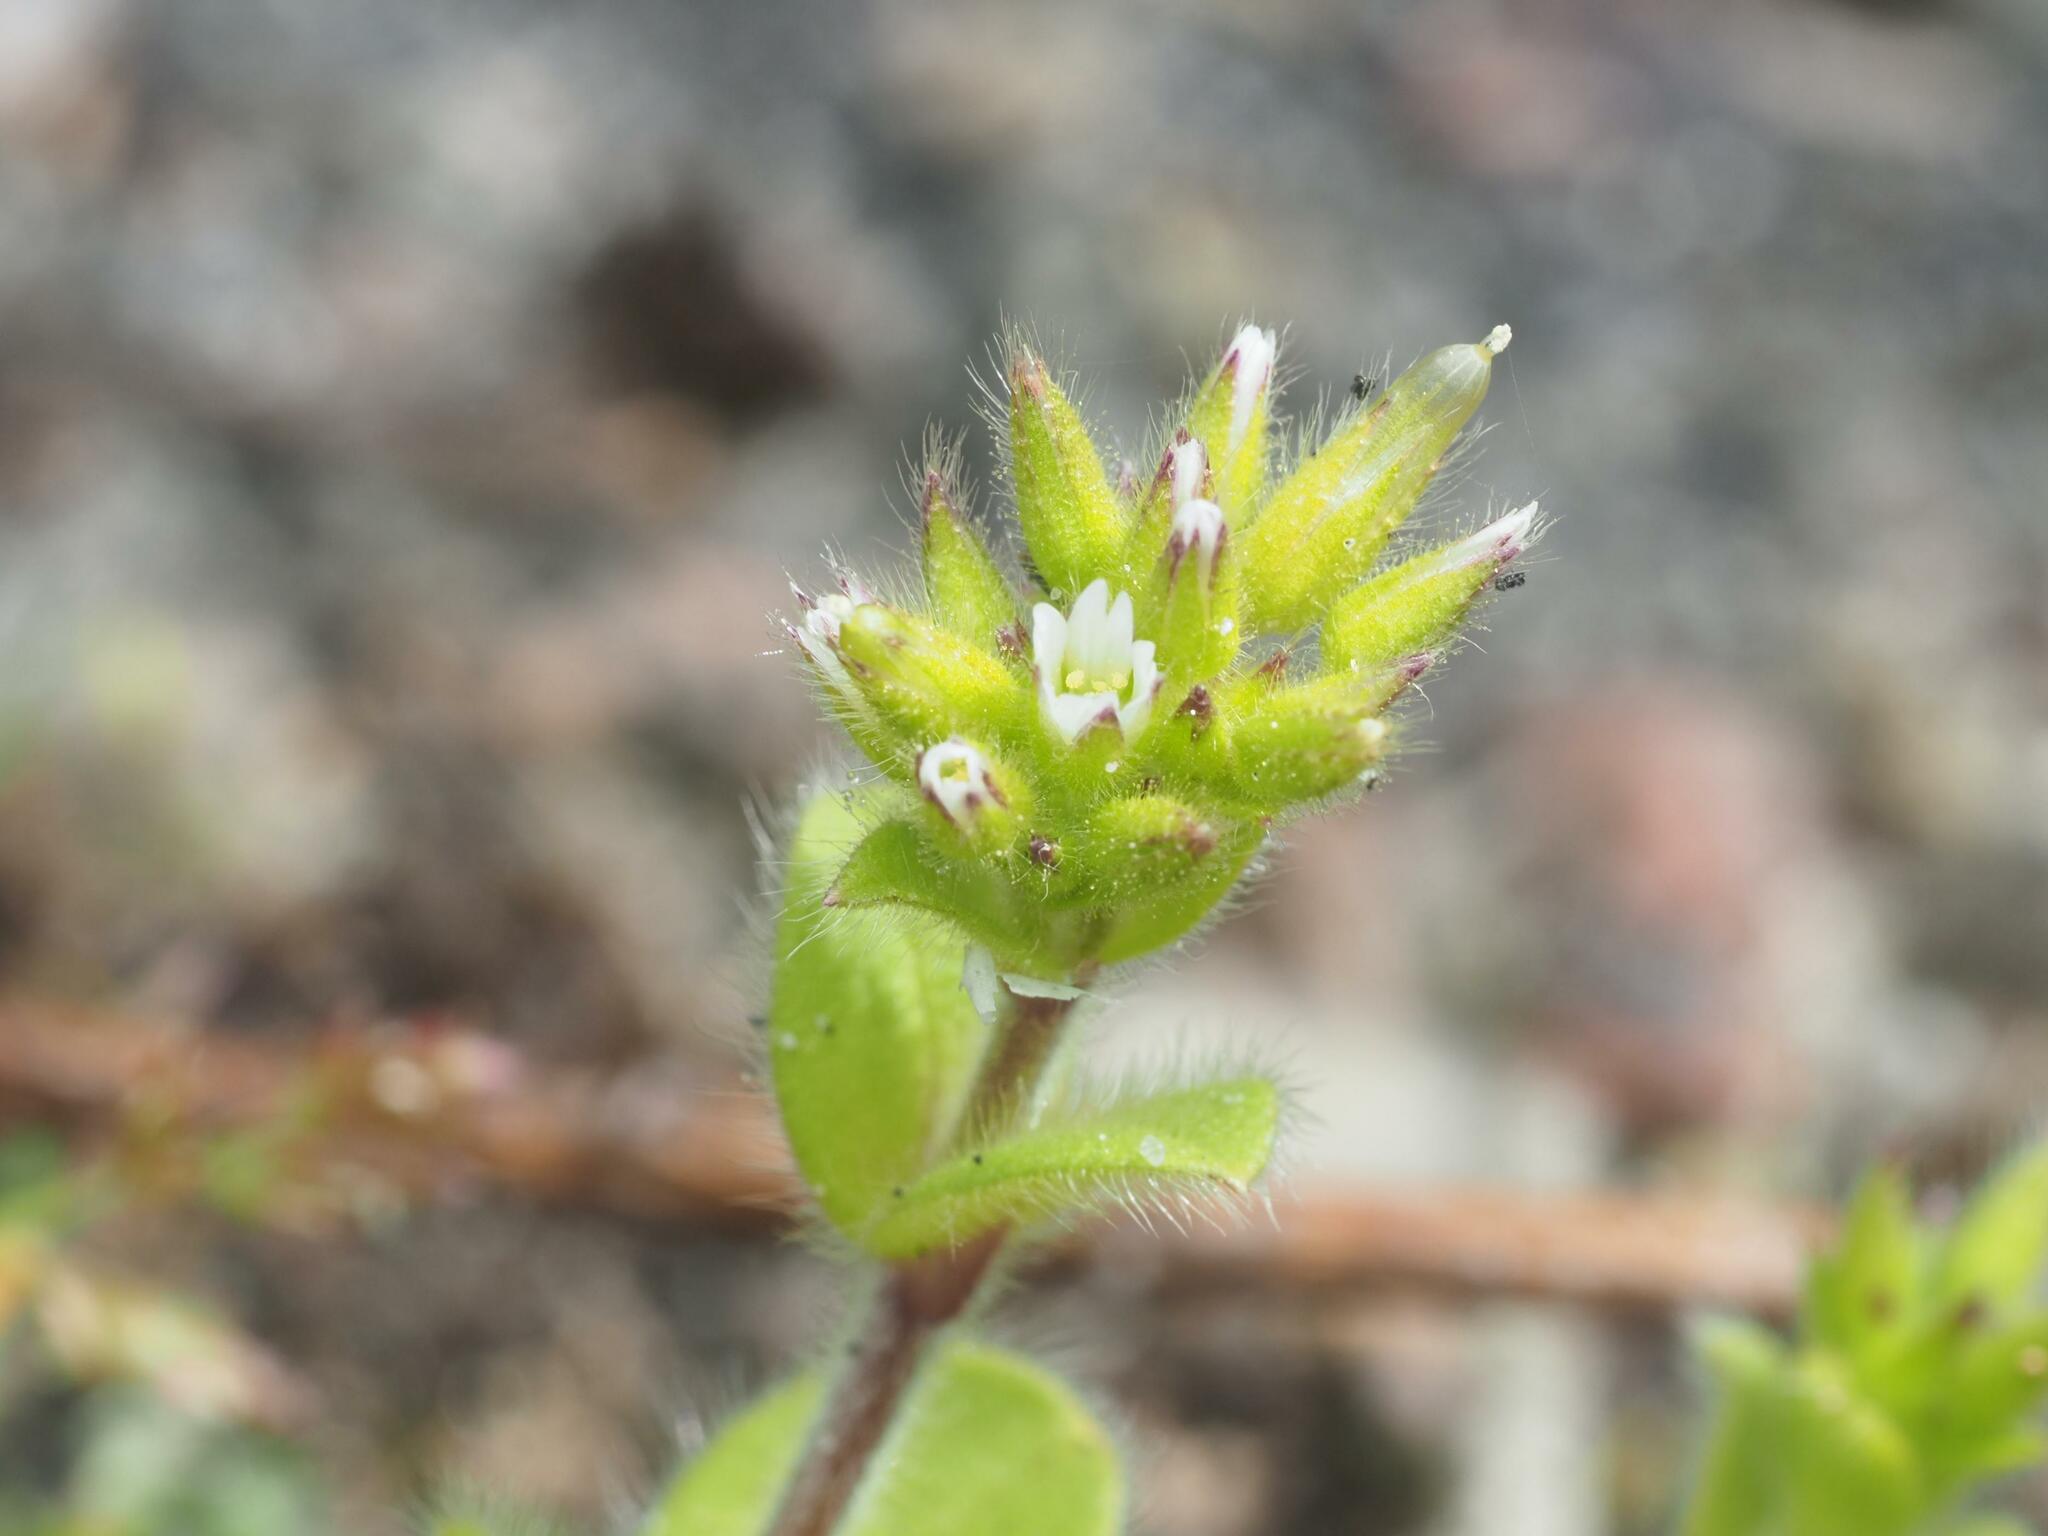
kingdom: Plantae
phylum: Tracheophyta
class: Magnoliopsida
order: Caryophyllales
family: Caryophyllaceae
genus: Cerastium
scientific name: Cerastium glomeratum
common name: Sticky chickweed
